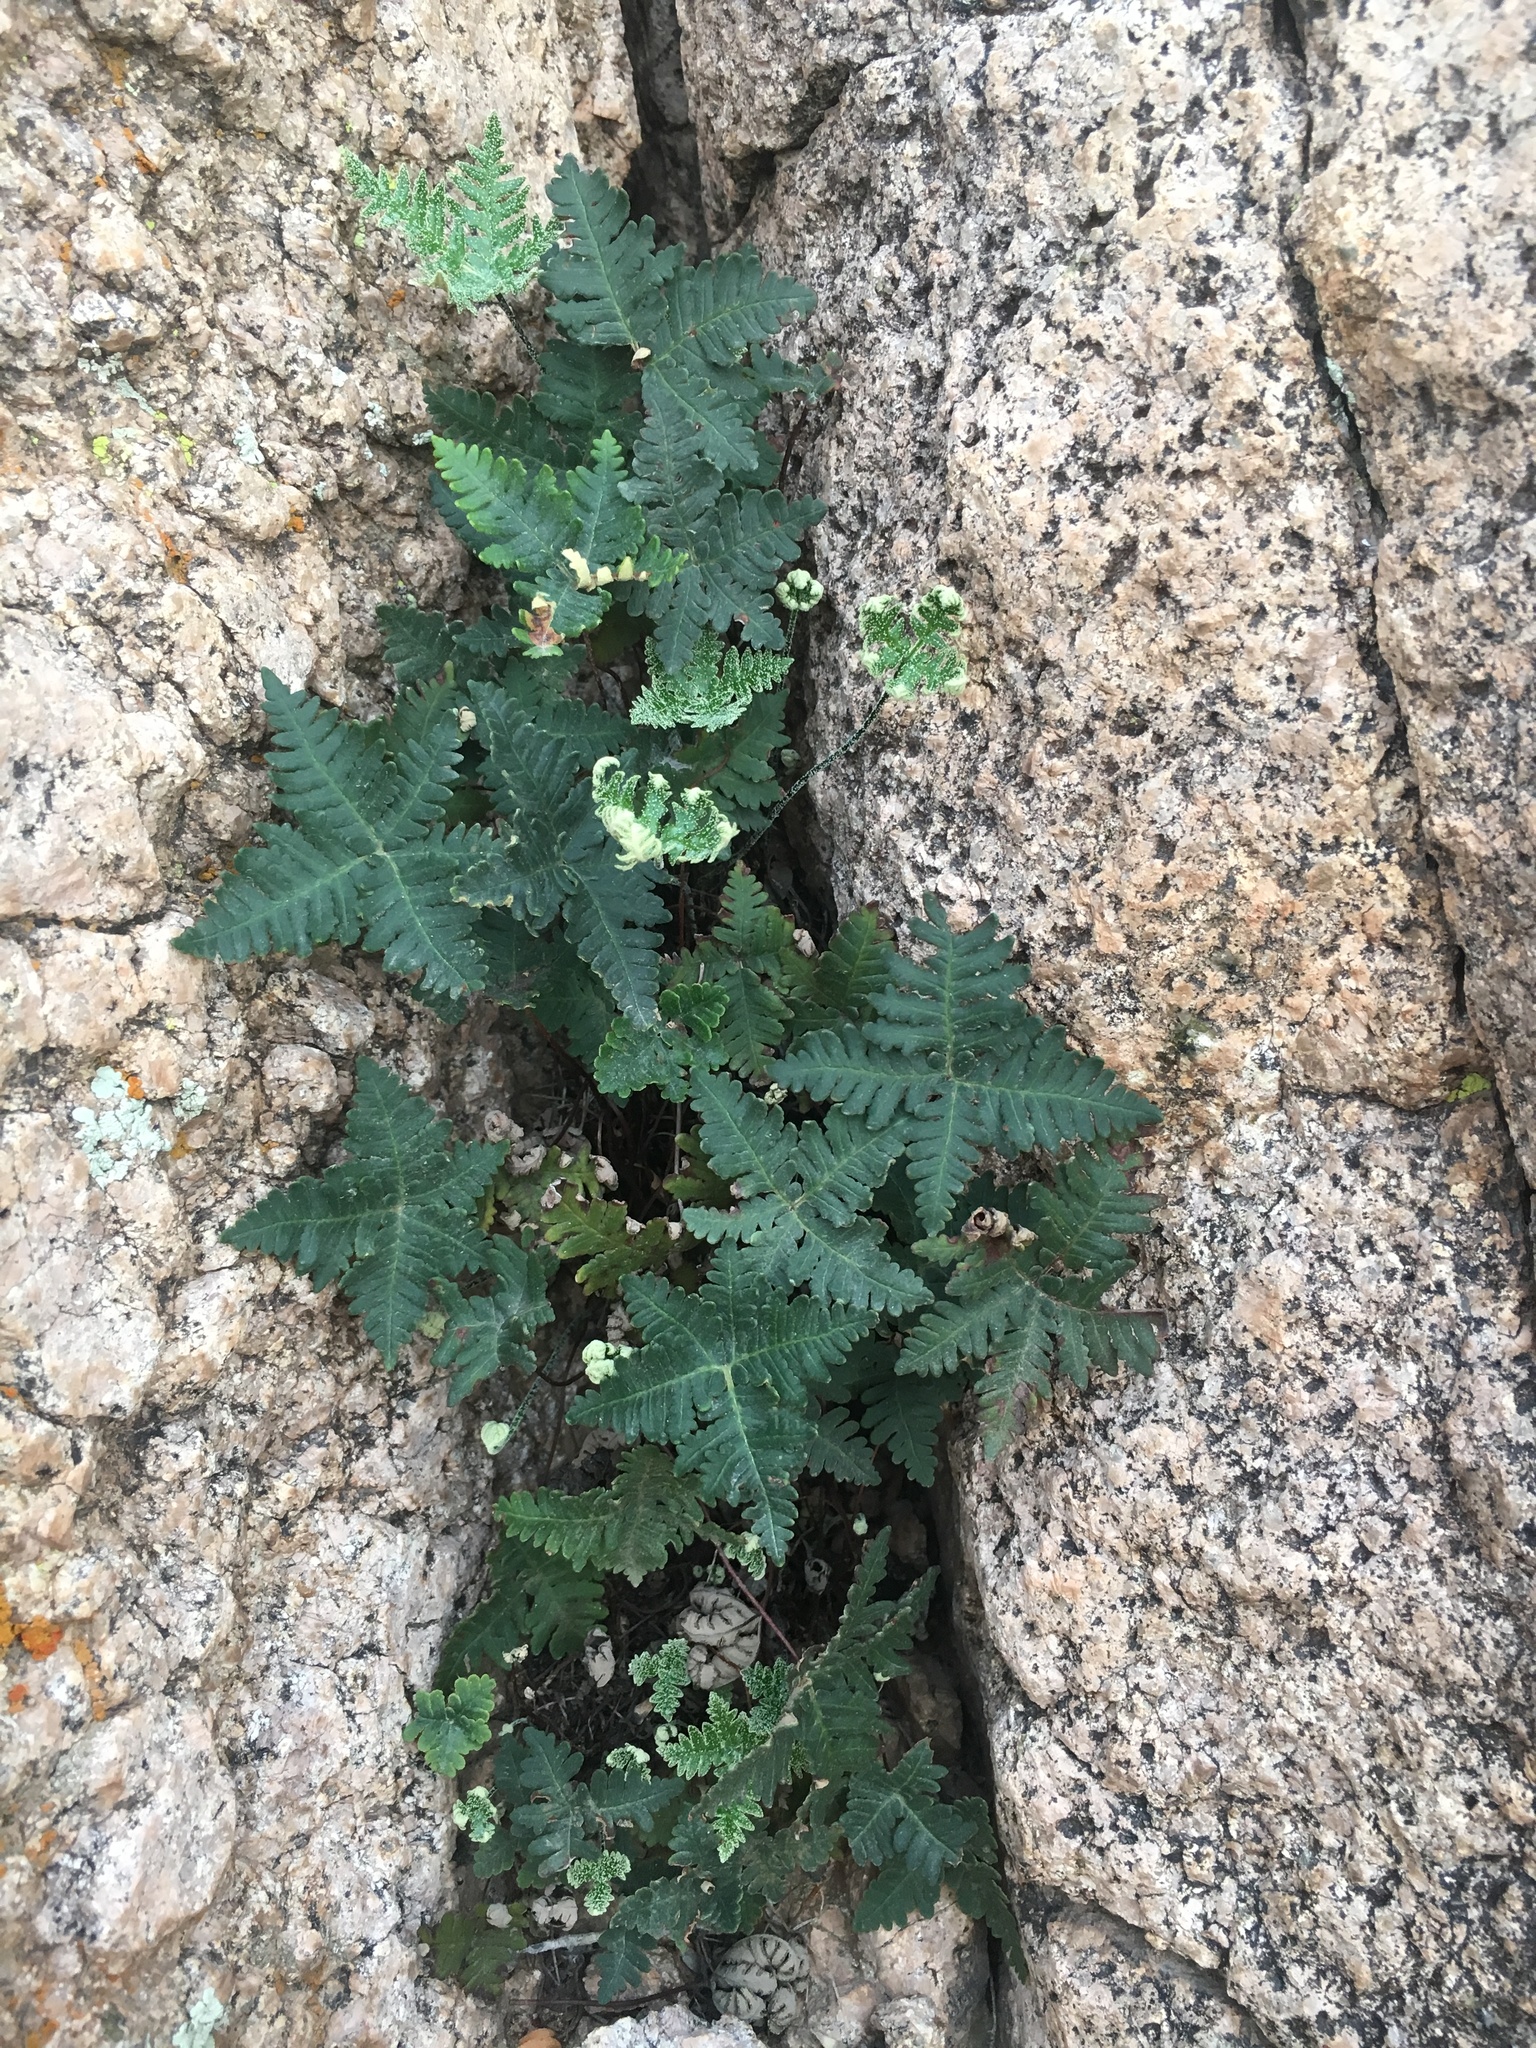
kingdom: Plantae
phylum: Tracheophyta
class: Polypodiopsida
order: Polypodiales
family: Pteridaceae
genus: Notholaena
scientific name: Notholaena standleyi
